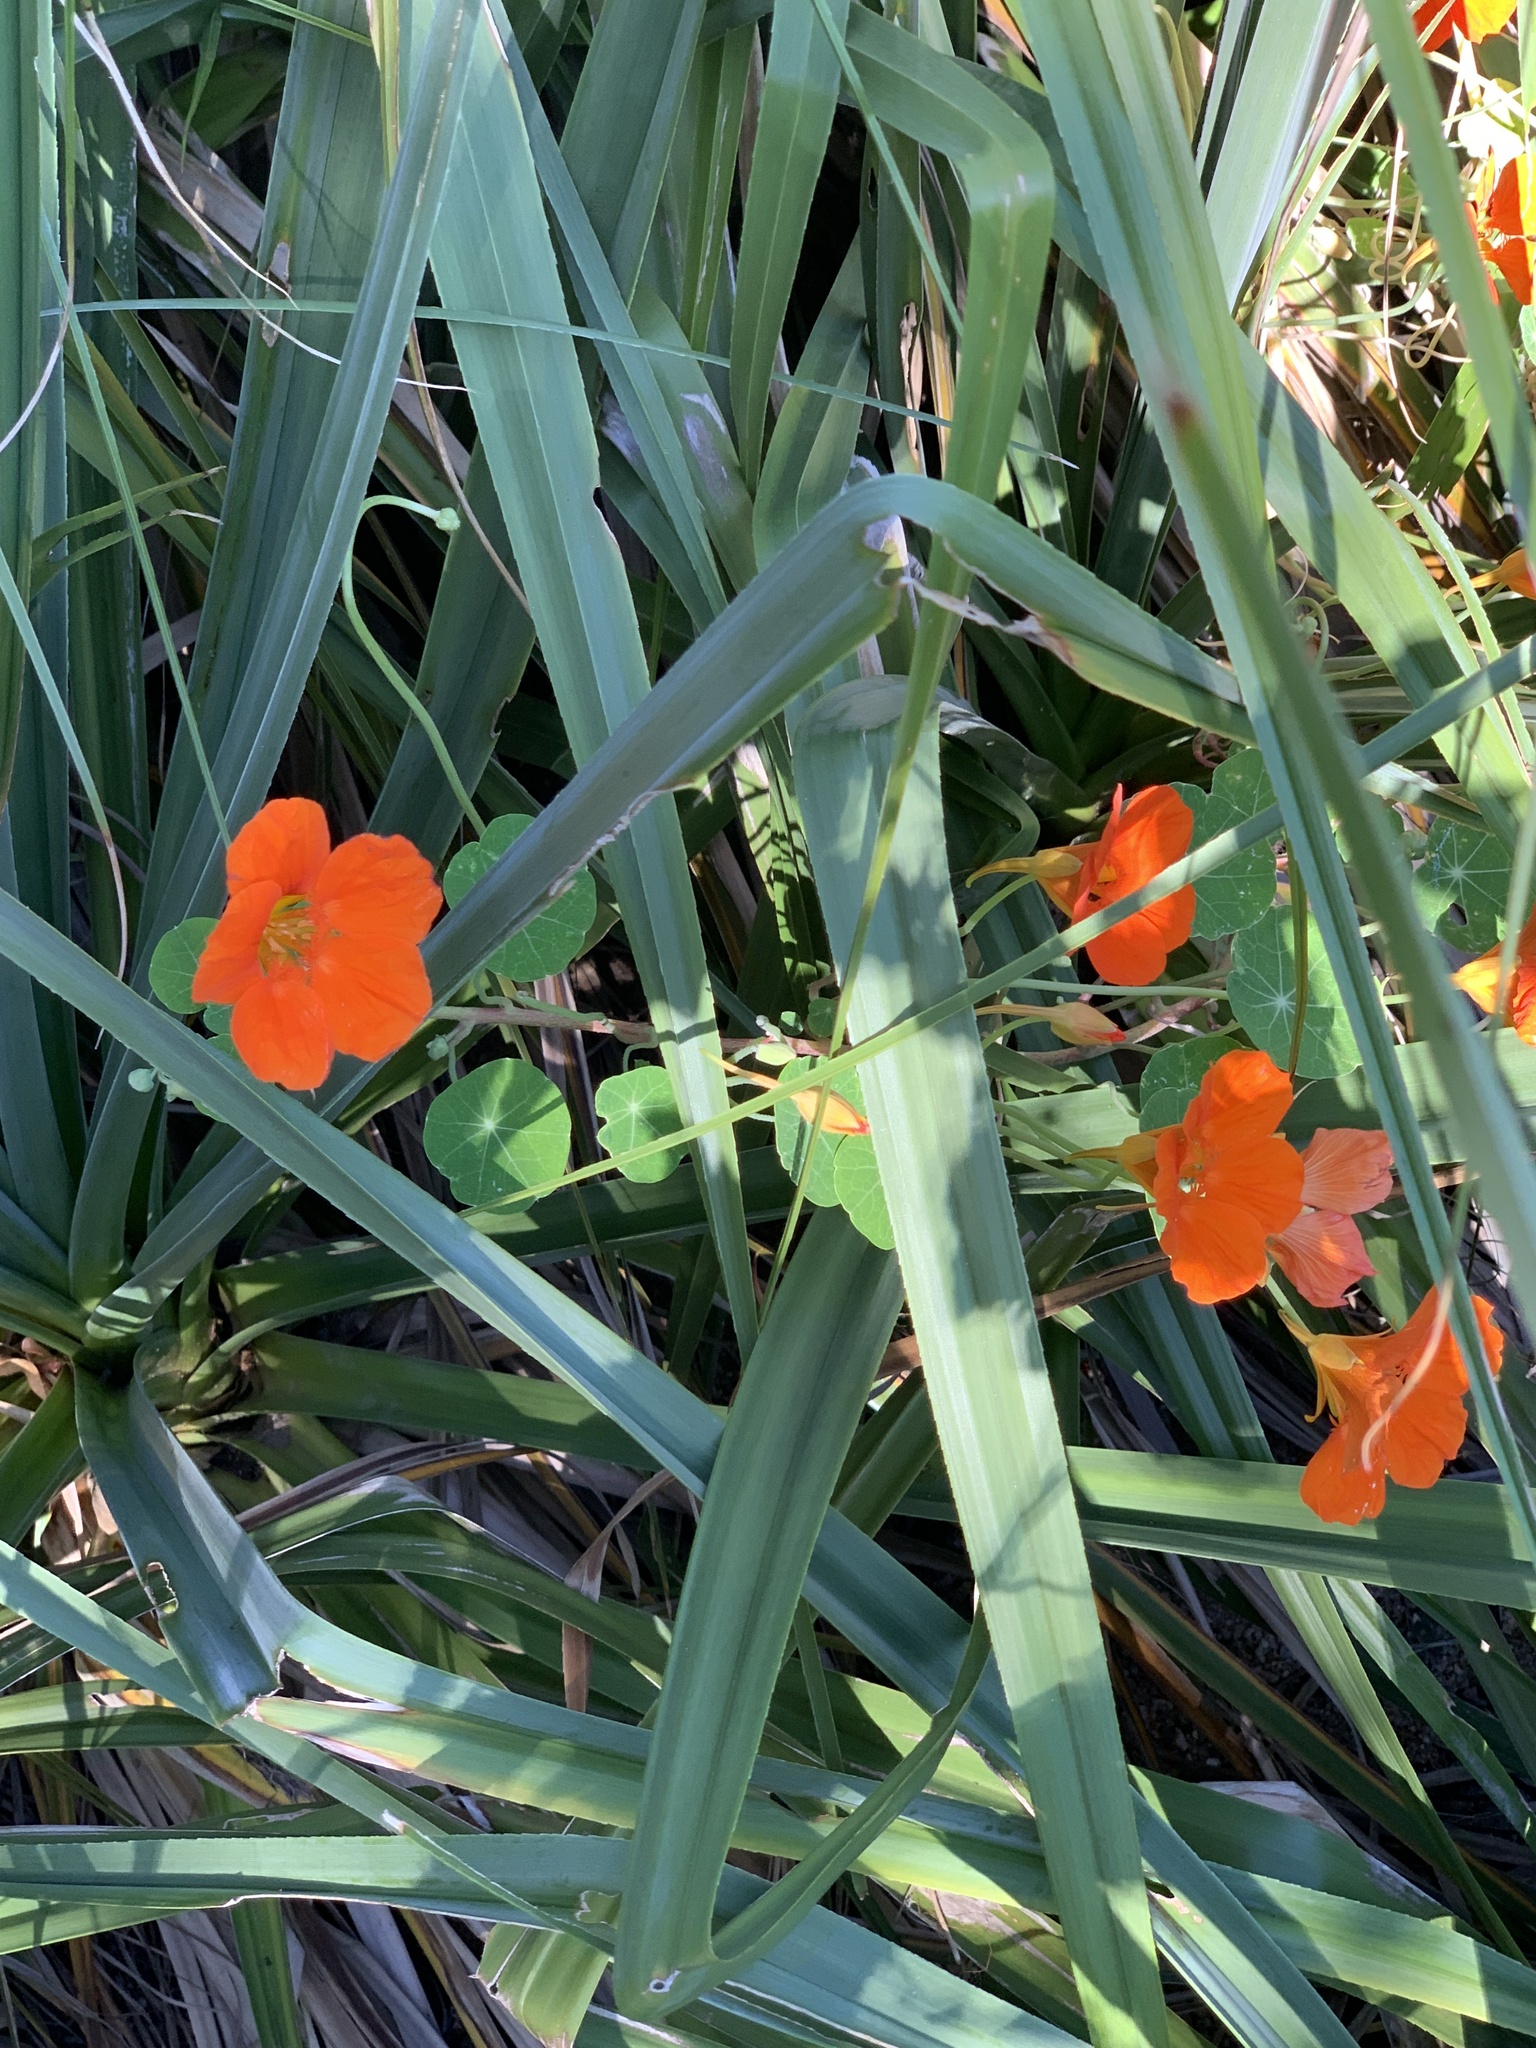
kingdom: Plantae
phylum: Tracheophyta
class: Magnoliopsida
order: Brassicales
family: Tropaeolaceae
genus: Tropaeolum
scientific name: Tropaeolum majus
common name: Nasturtium
